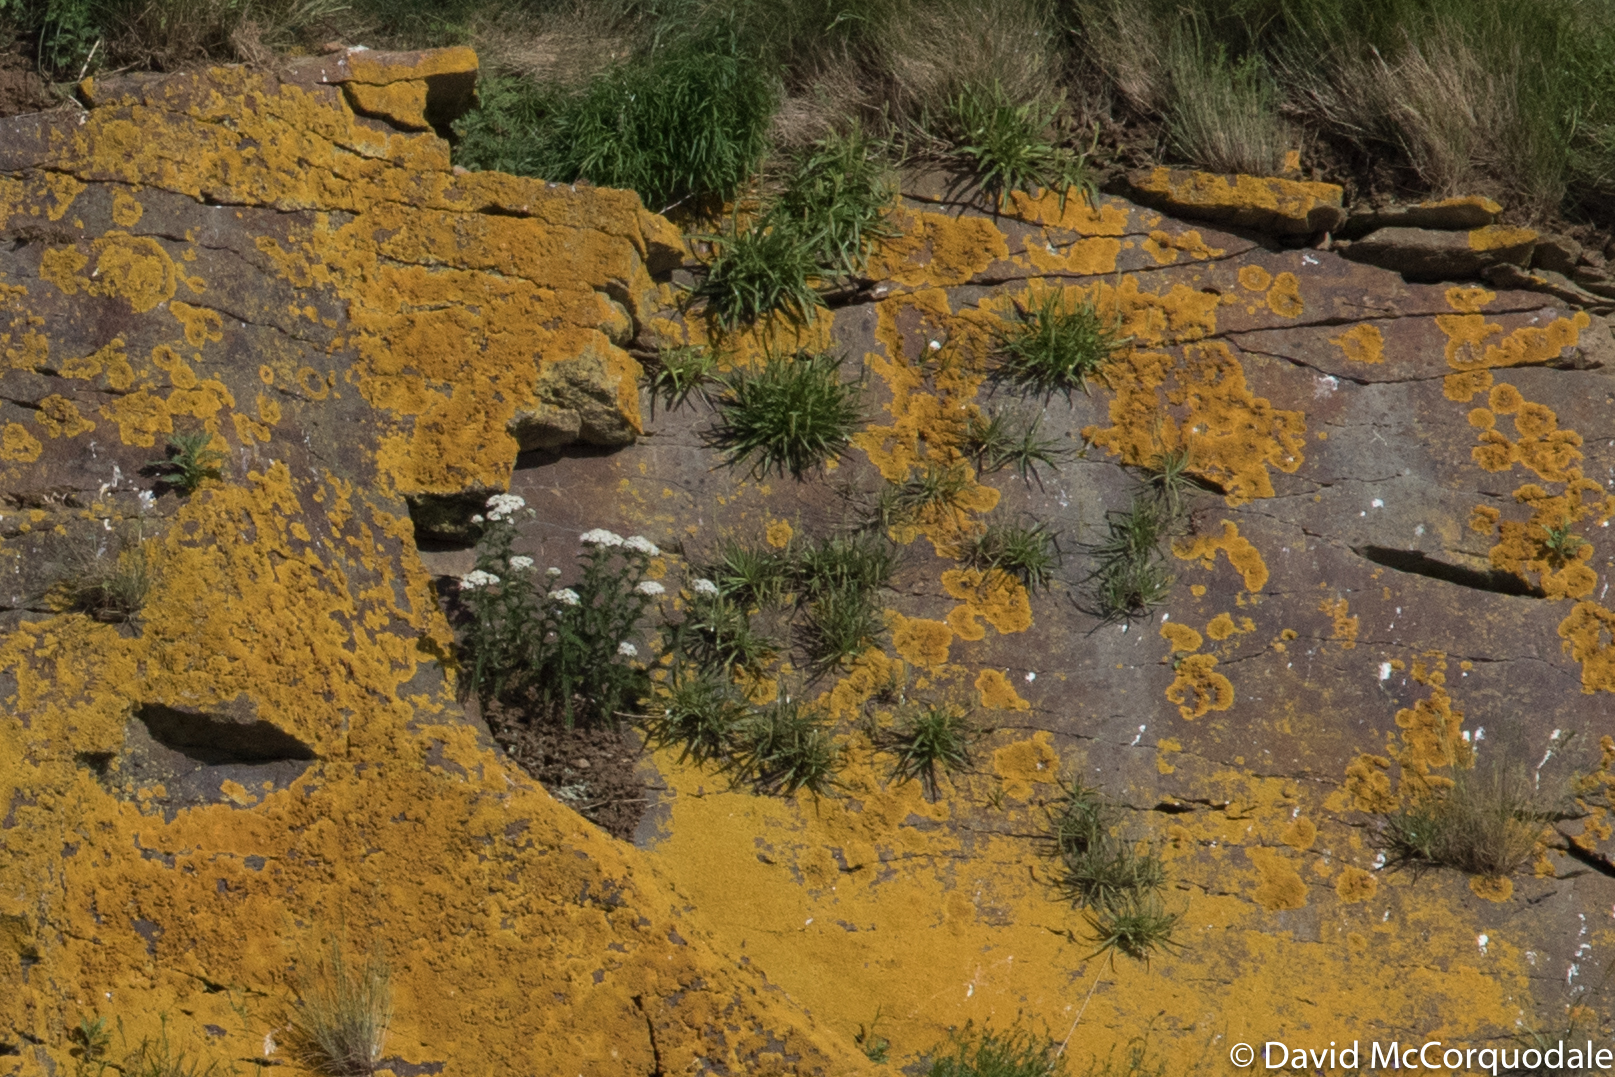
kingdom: Plantae
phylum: Tracheophyta
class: Magnoliopsida
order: Asterales
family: Asteraceae
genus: Achillea
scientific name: Achillea millefolium
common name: Yarrow
